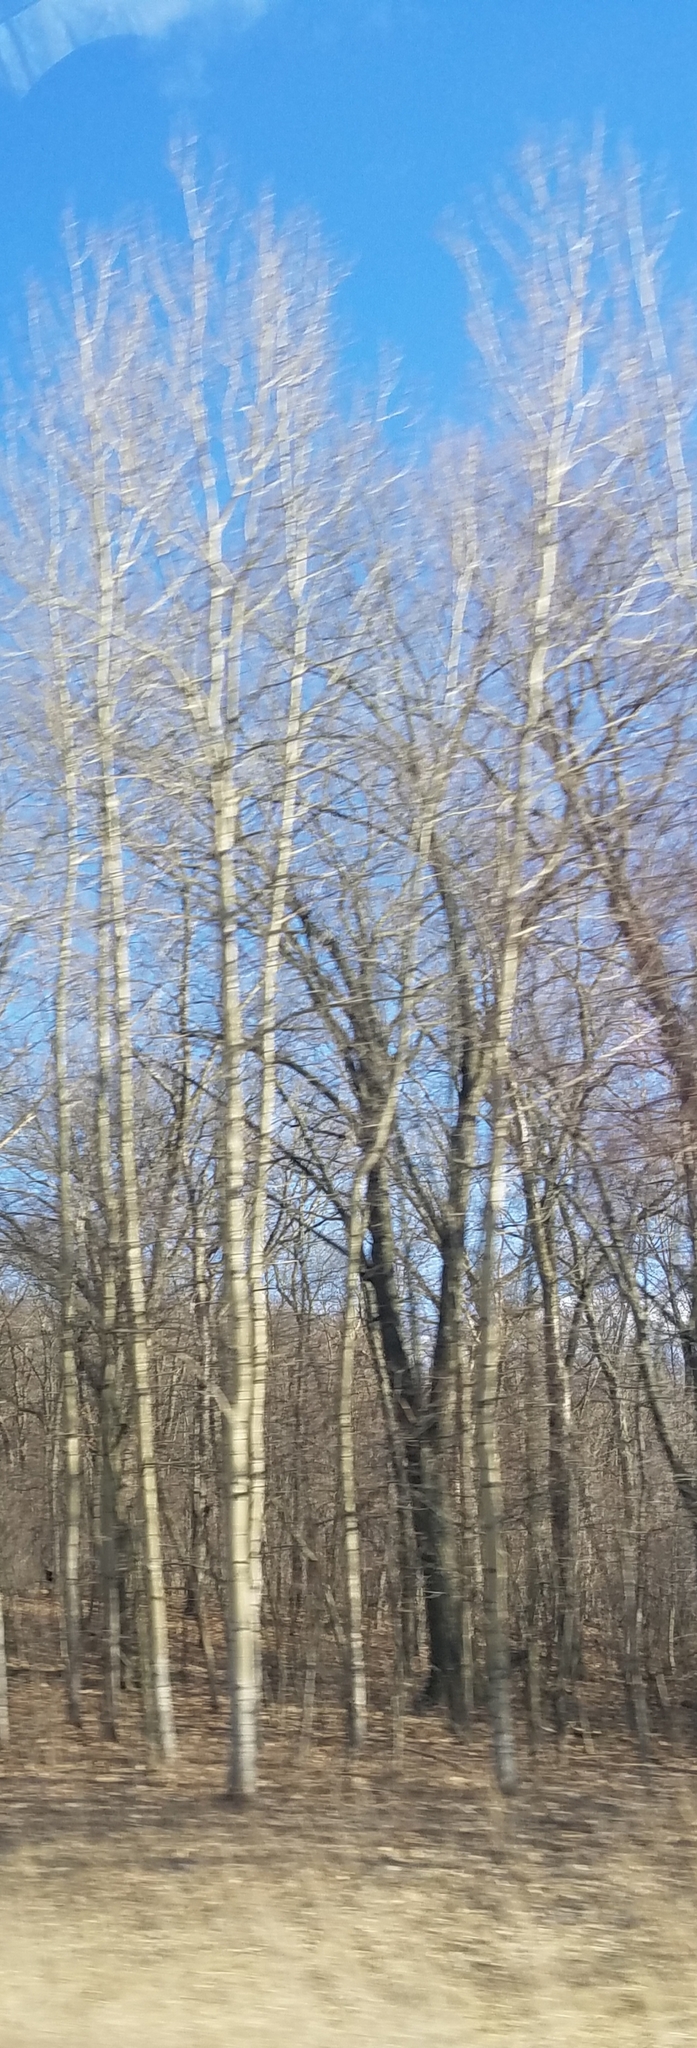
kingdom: Plantae
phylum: Tracheophyta
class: Magnoliopsida
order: Malpighiales
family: Salicaceae
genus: Populus
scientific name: Populus tremuloides
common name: Quaking aspen
